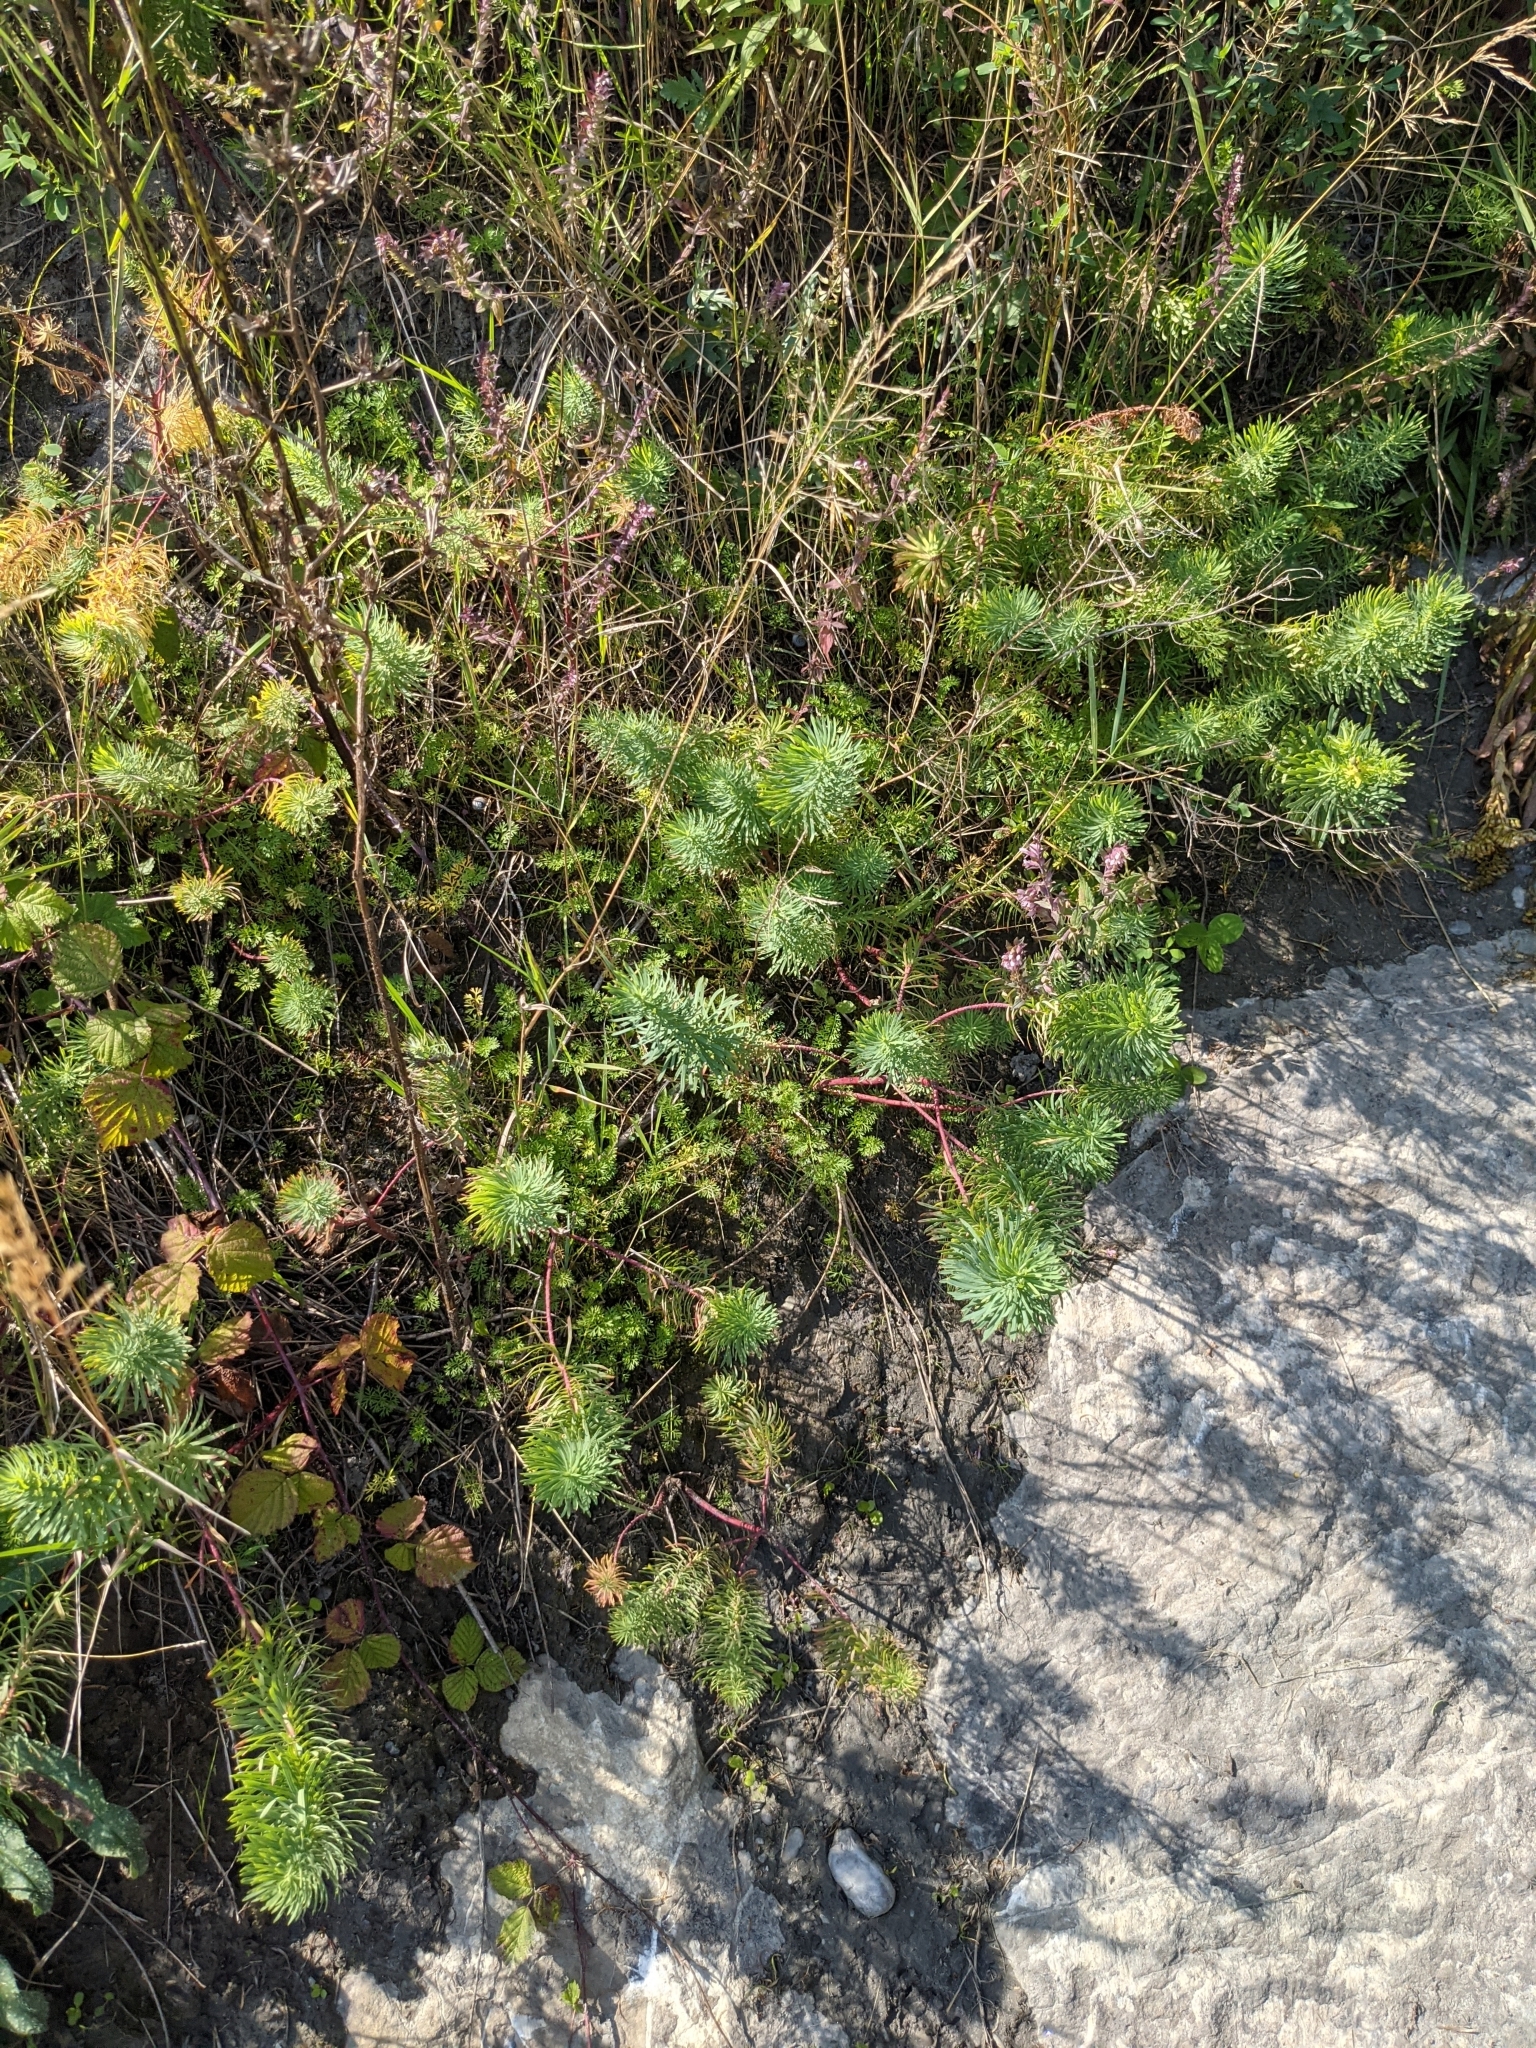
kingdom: Plantae
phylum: Tracheophyta
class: Magnoliopsida
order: Malpighiales
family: Euphorbiaceae
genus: Euphorbia
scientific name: Euphorbia cyparissias
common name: Cypress spurge
